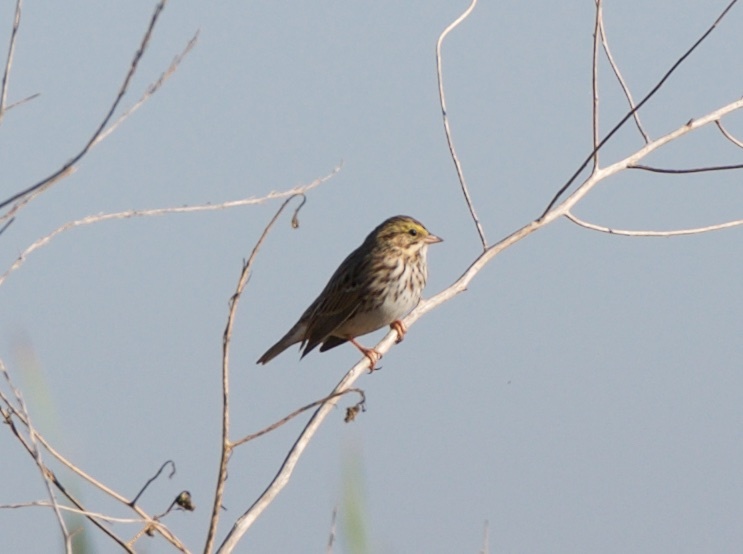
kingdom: Animalia
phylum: Chordata
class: Aves
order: Passeriformes
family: Passerellidae
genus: Passerculus
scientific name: Passerculus sandwichensis
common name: Savannah sparrow
